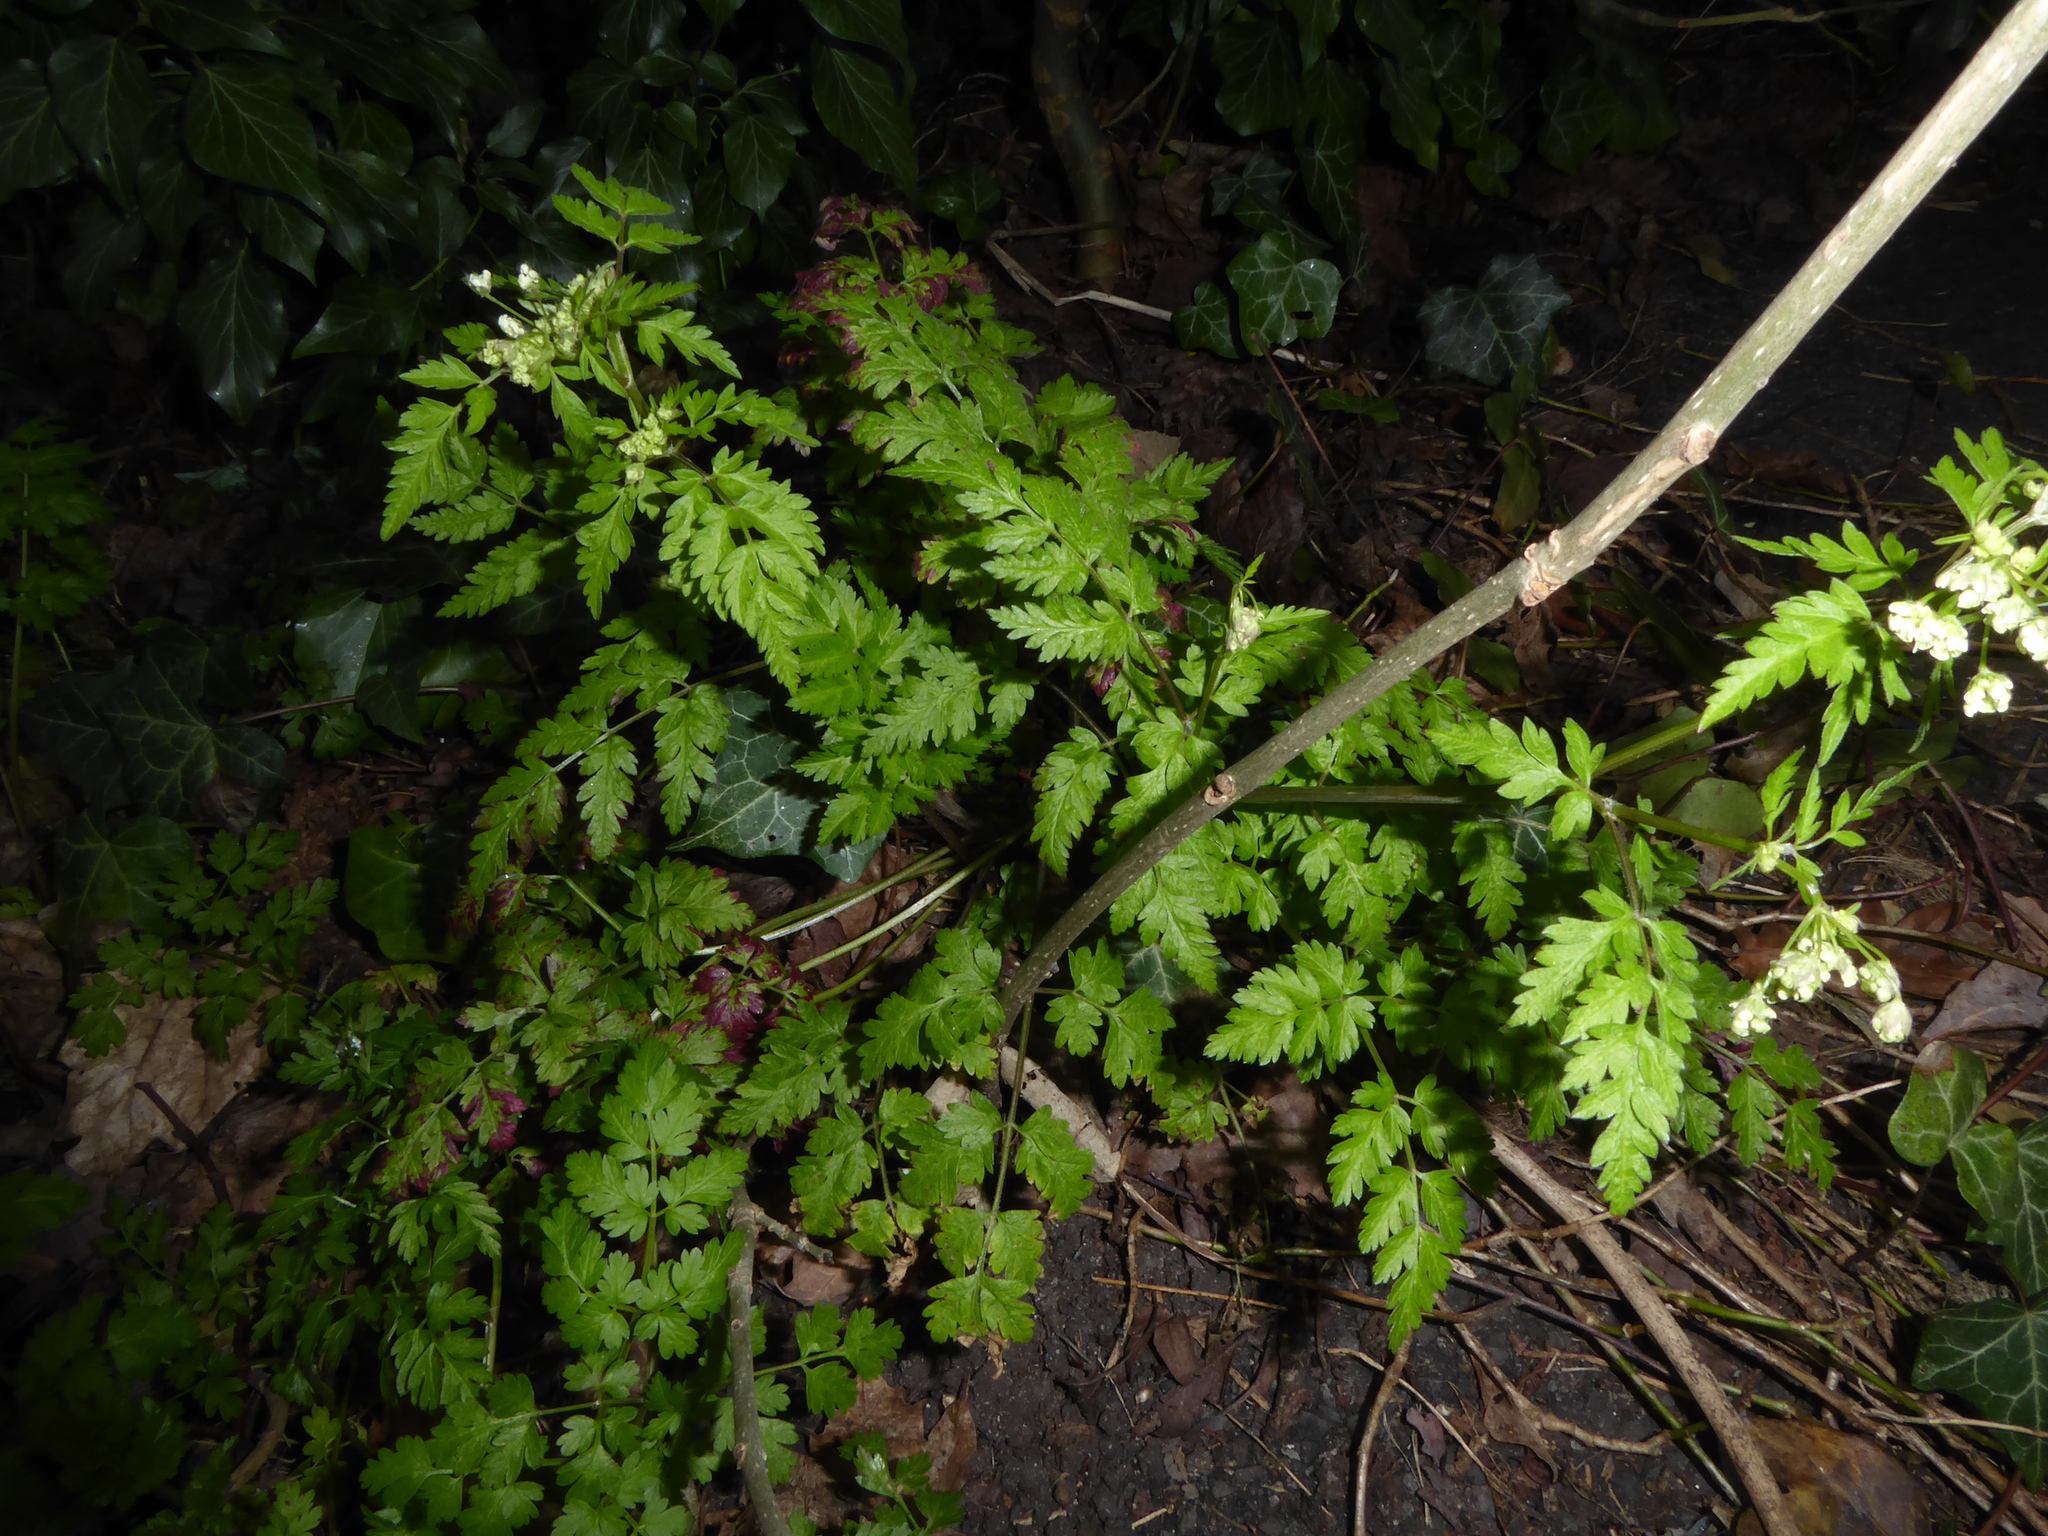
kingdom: Plantae
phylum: Tracheophyta
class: Magnoliopsida
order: Apiales
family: Apiaceae
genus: Anthriscus
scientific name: Anthriscus sylvestris
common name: Cow parsley
